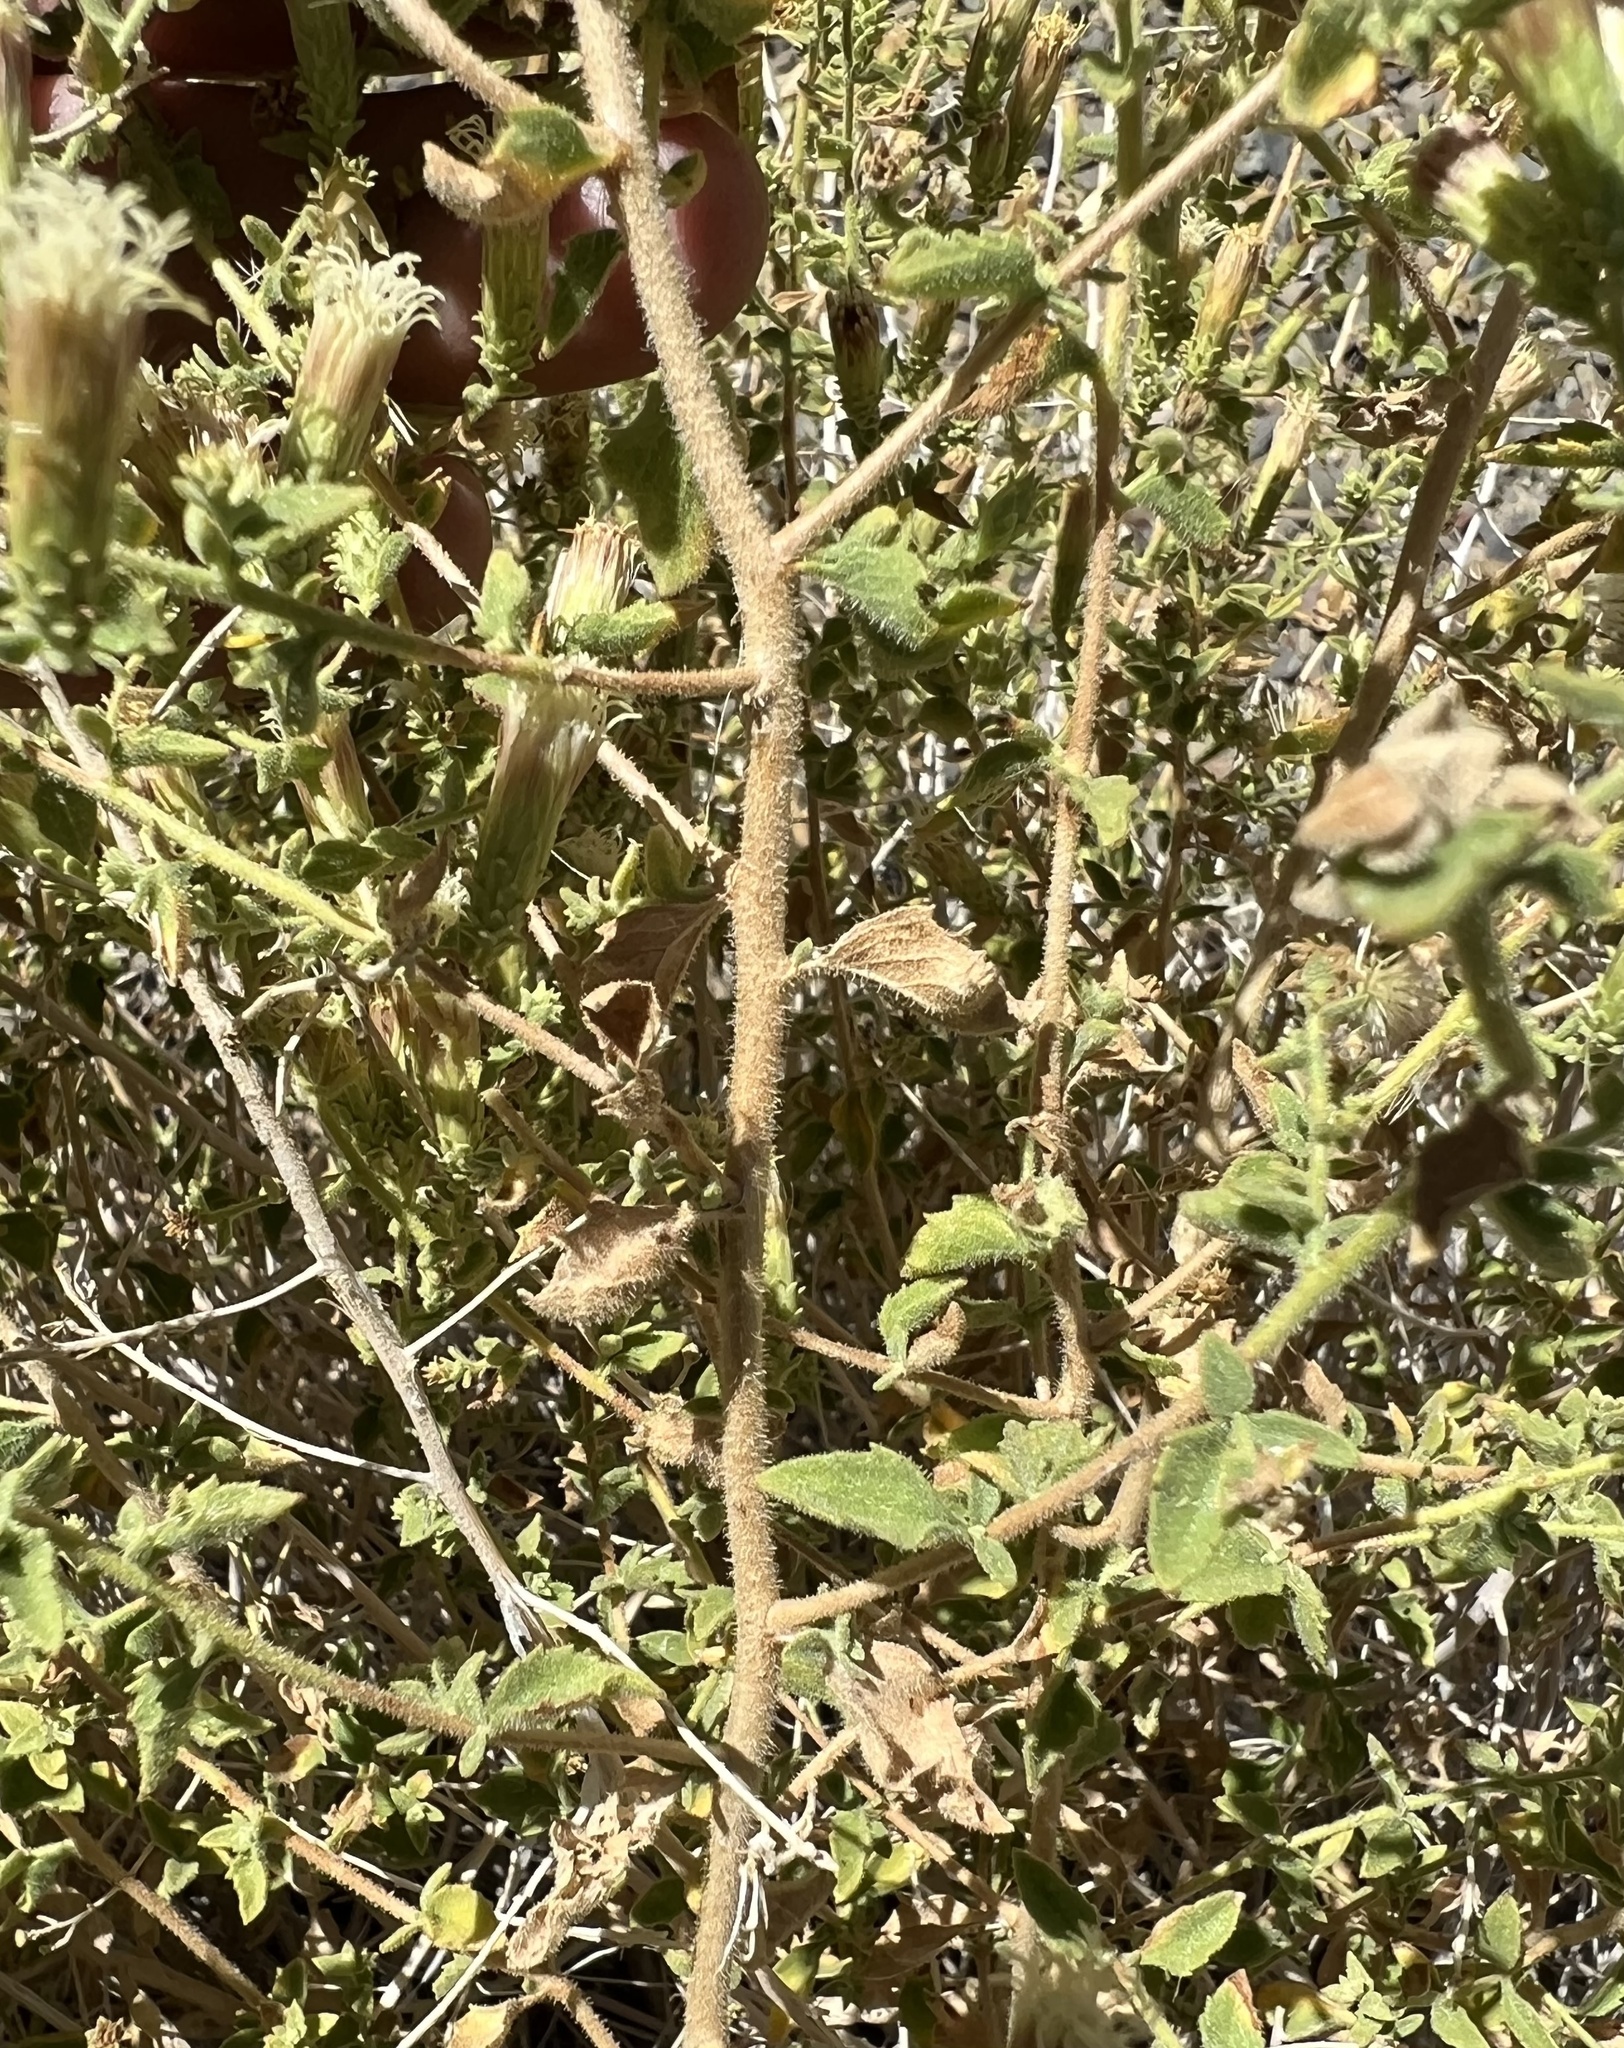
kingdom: Plantae
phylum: Tracheophyta
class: Magnoliopsida
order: Asterales
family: Asteraceae
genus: Brickellia
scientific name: Brickellia microphylla
